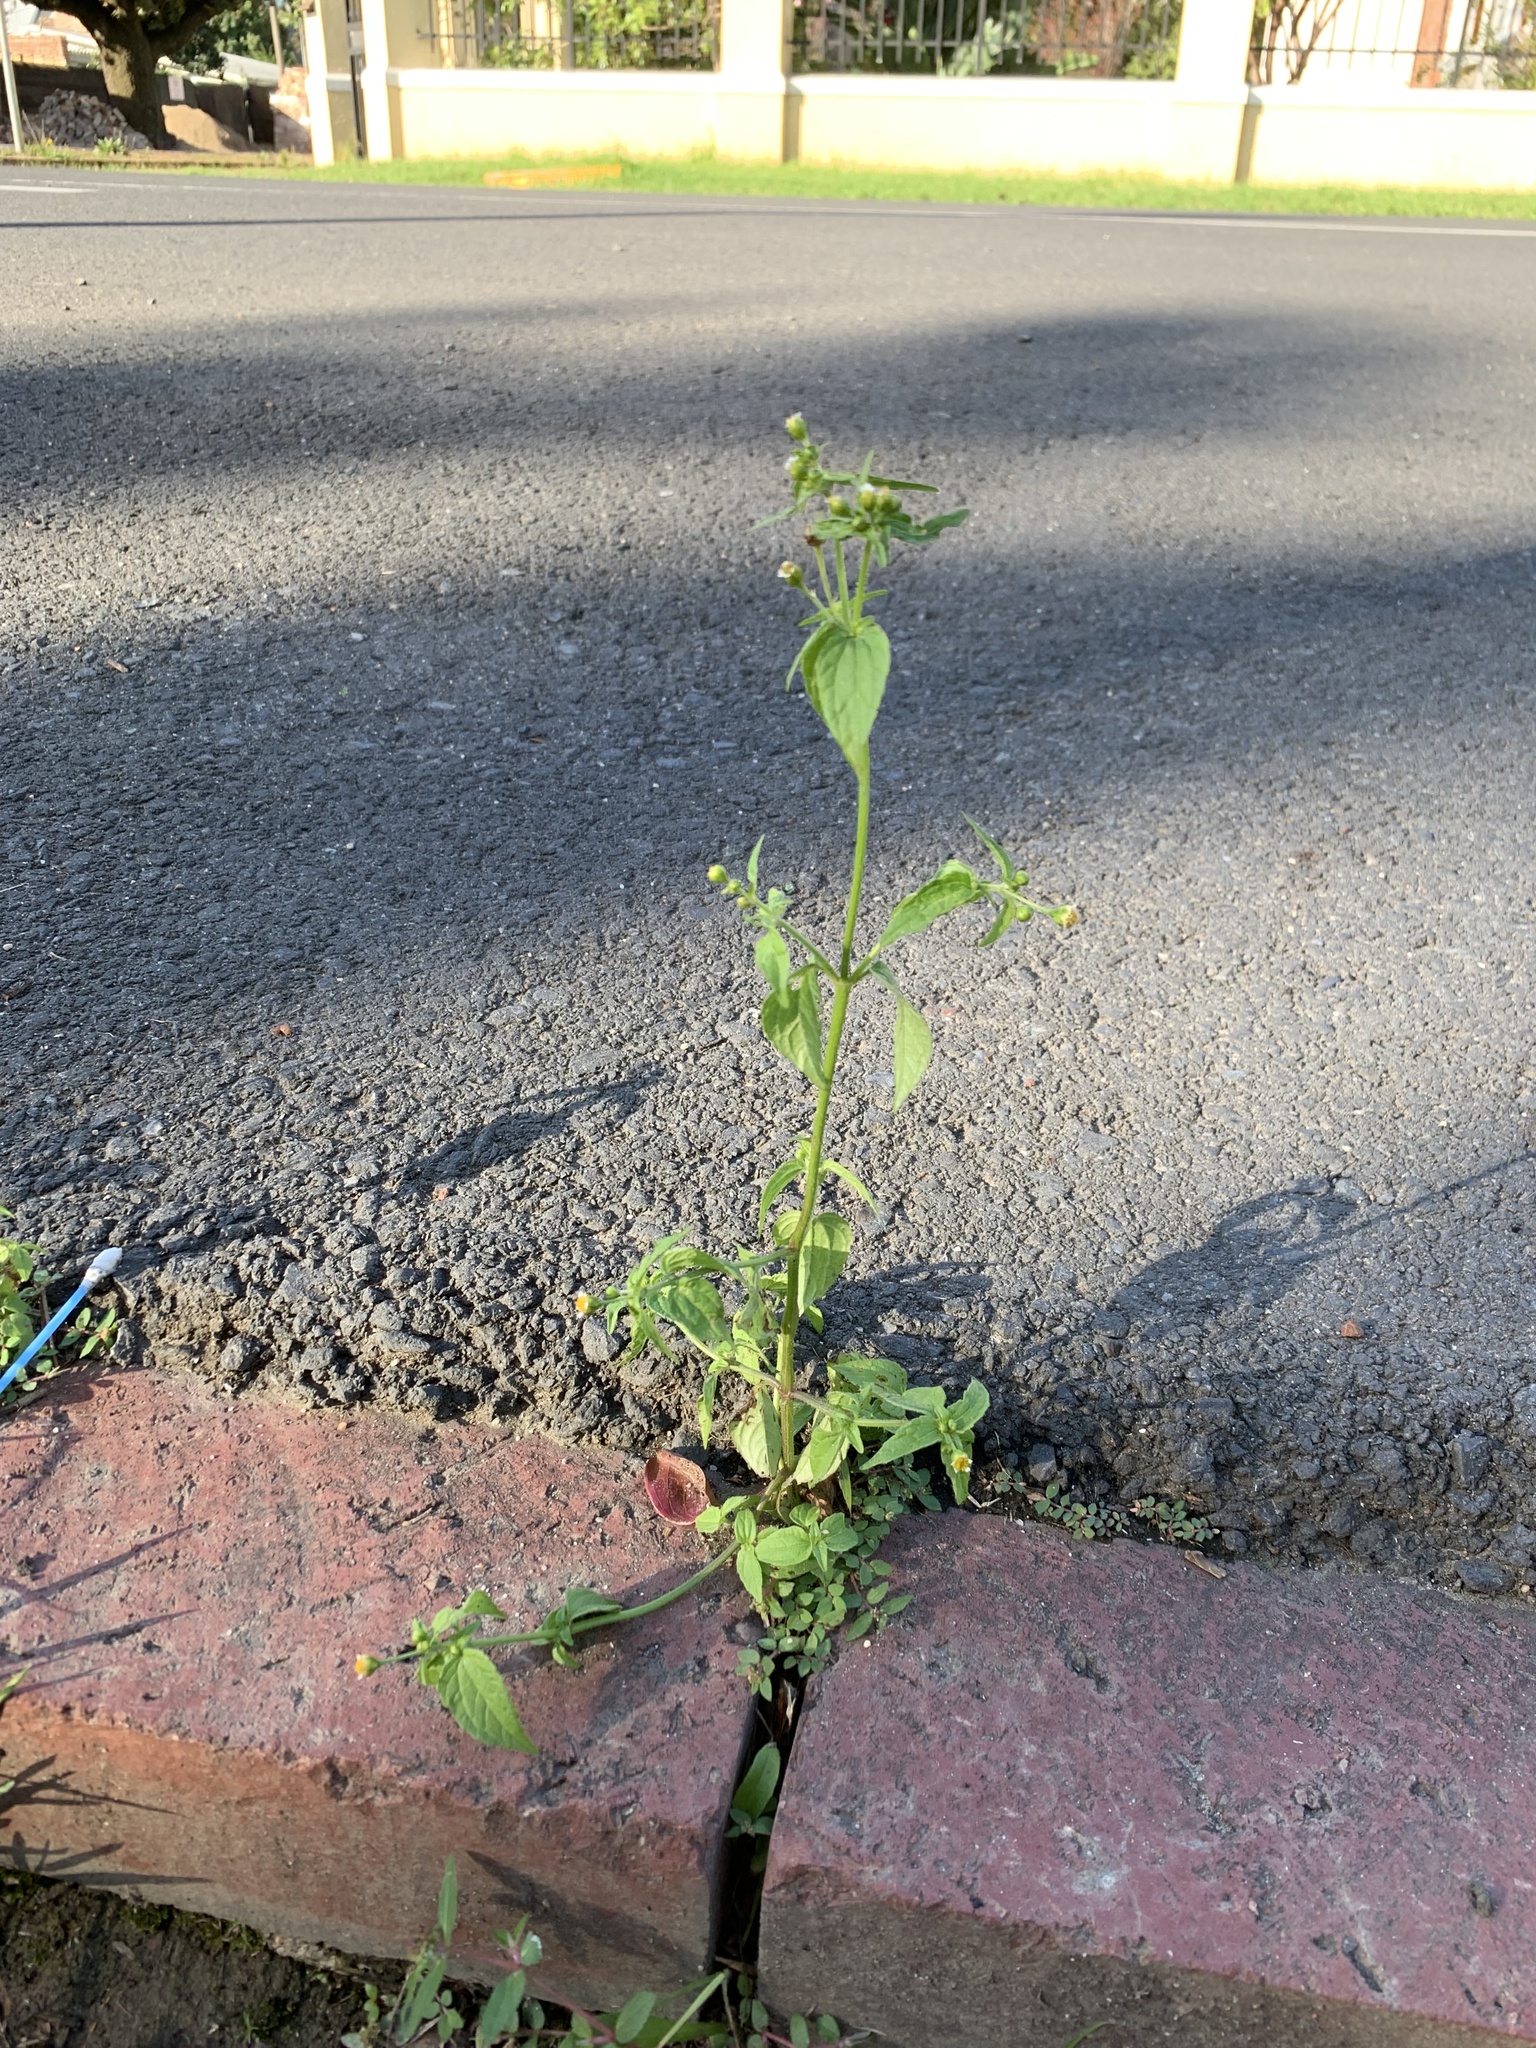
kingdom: Plantae
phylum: Tracheophyta
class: Magnoliopsida
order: Asterales
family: Asteraceae
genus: Galinsoga
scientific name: Galinsoga quadriradiata
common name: Shaggy soldier
